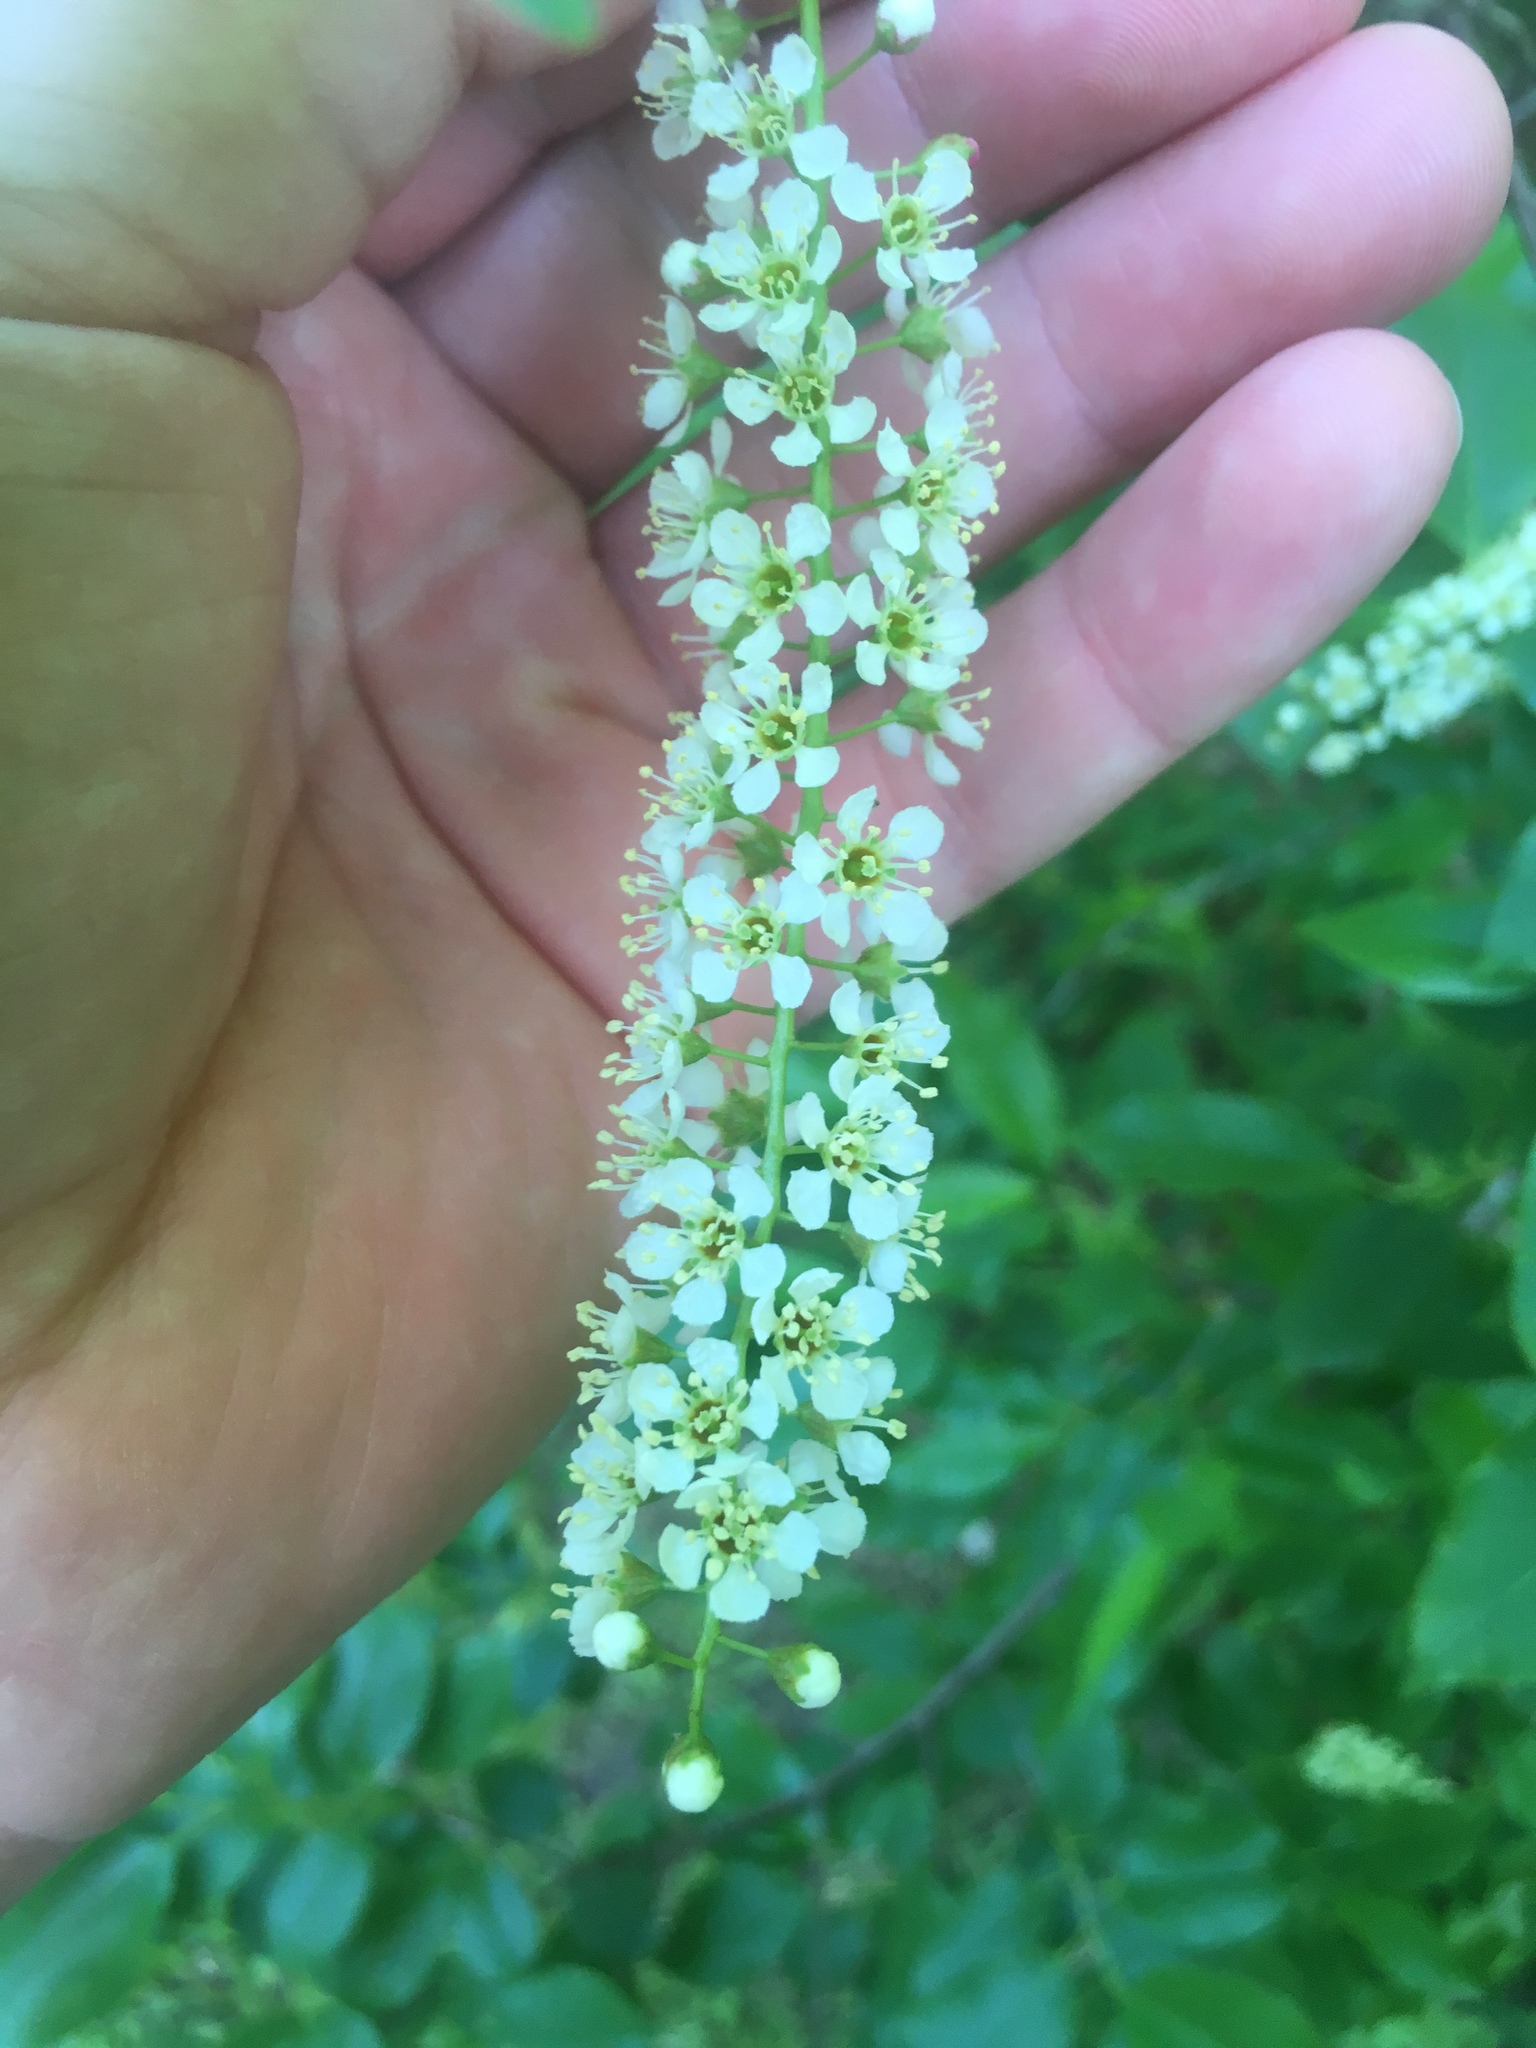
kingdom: Plantae
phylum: Tracheophyta
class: Magnoliopsida
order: Rosales
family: Rosaceae
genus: Prunus
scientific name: Prunus serotina
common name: Black cherry
